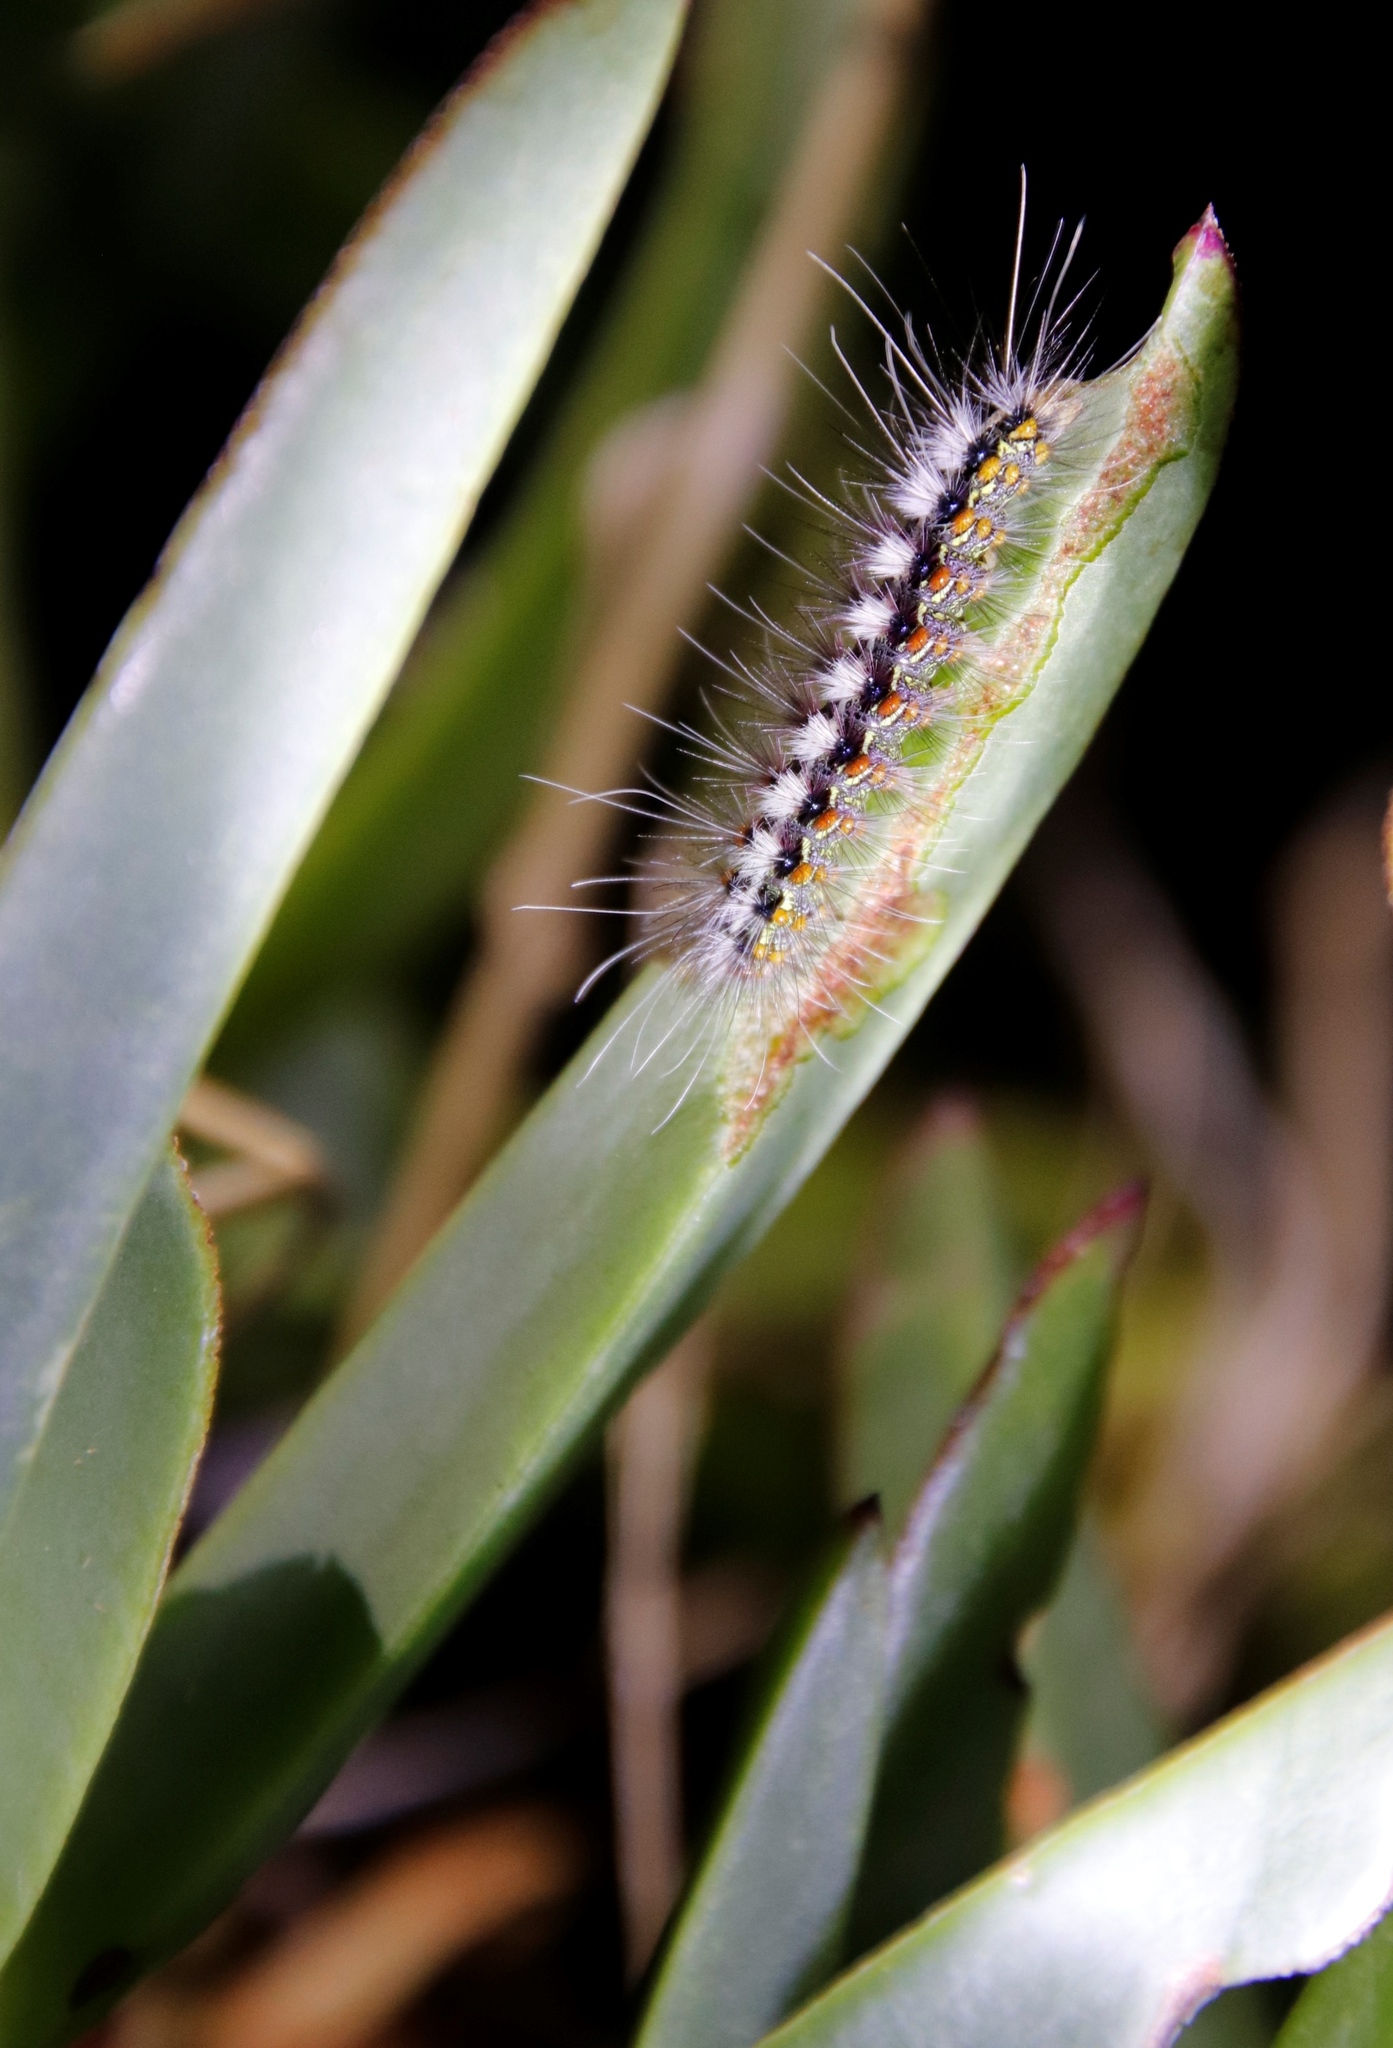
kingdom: Plantae
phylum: Tracheophyta
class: Magnoliopsida
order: Caryophyllales
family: Aizoaceae
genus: Carpobrotus
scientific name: Carpobrotus edulis
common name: Hottentot-fig
